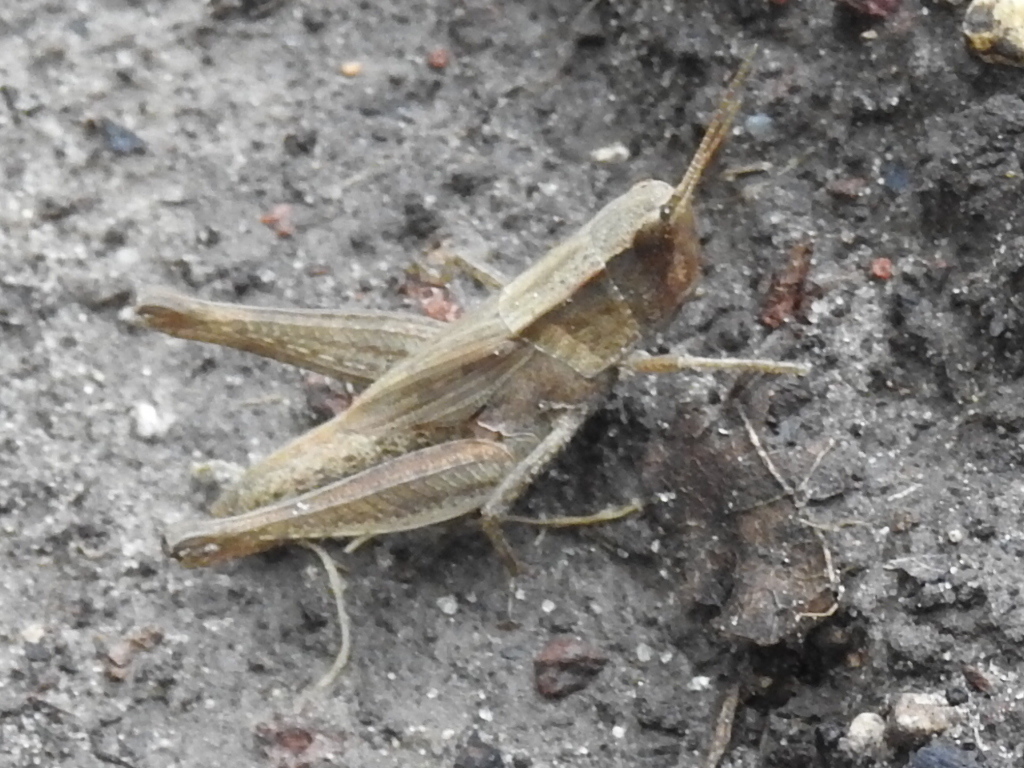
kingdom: Animalia
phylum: Arthropoda
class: Insecta
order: Orthoptera
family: Acrididae
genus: Dichromorpha
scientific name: Dichromorpha viridis
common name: Short-winged green grasshopper
